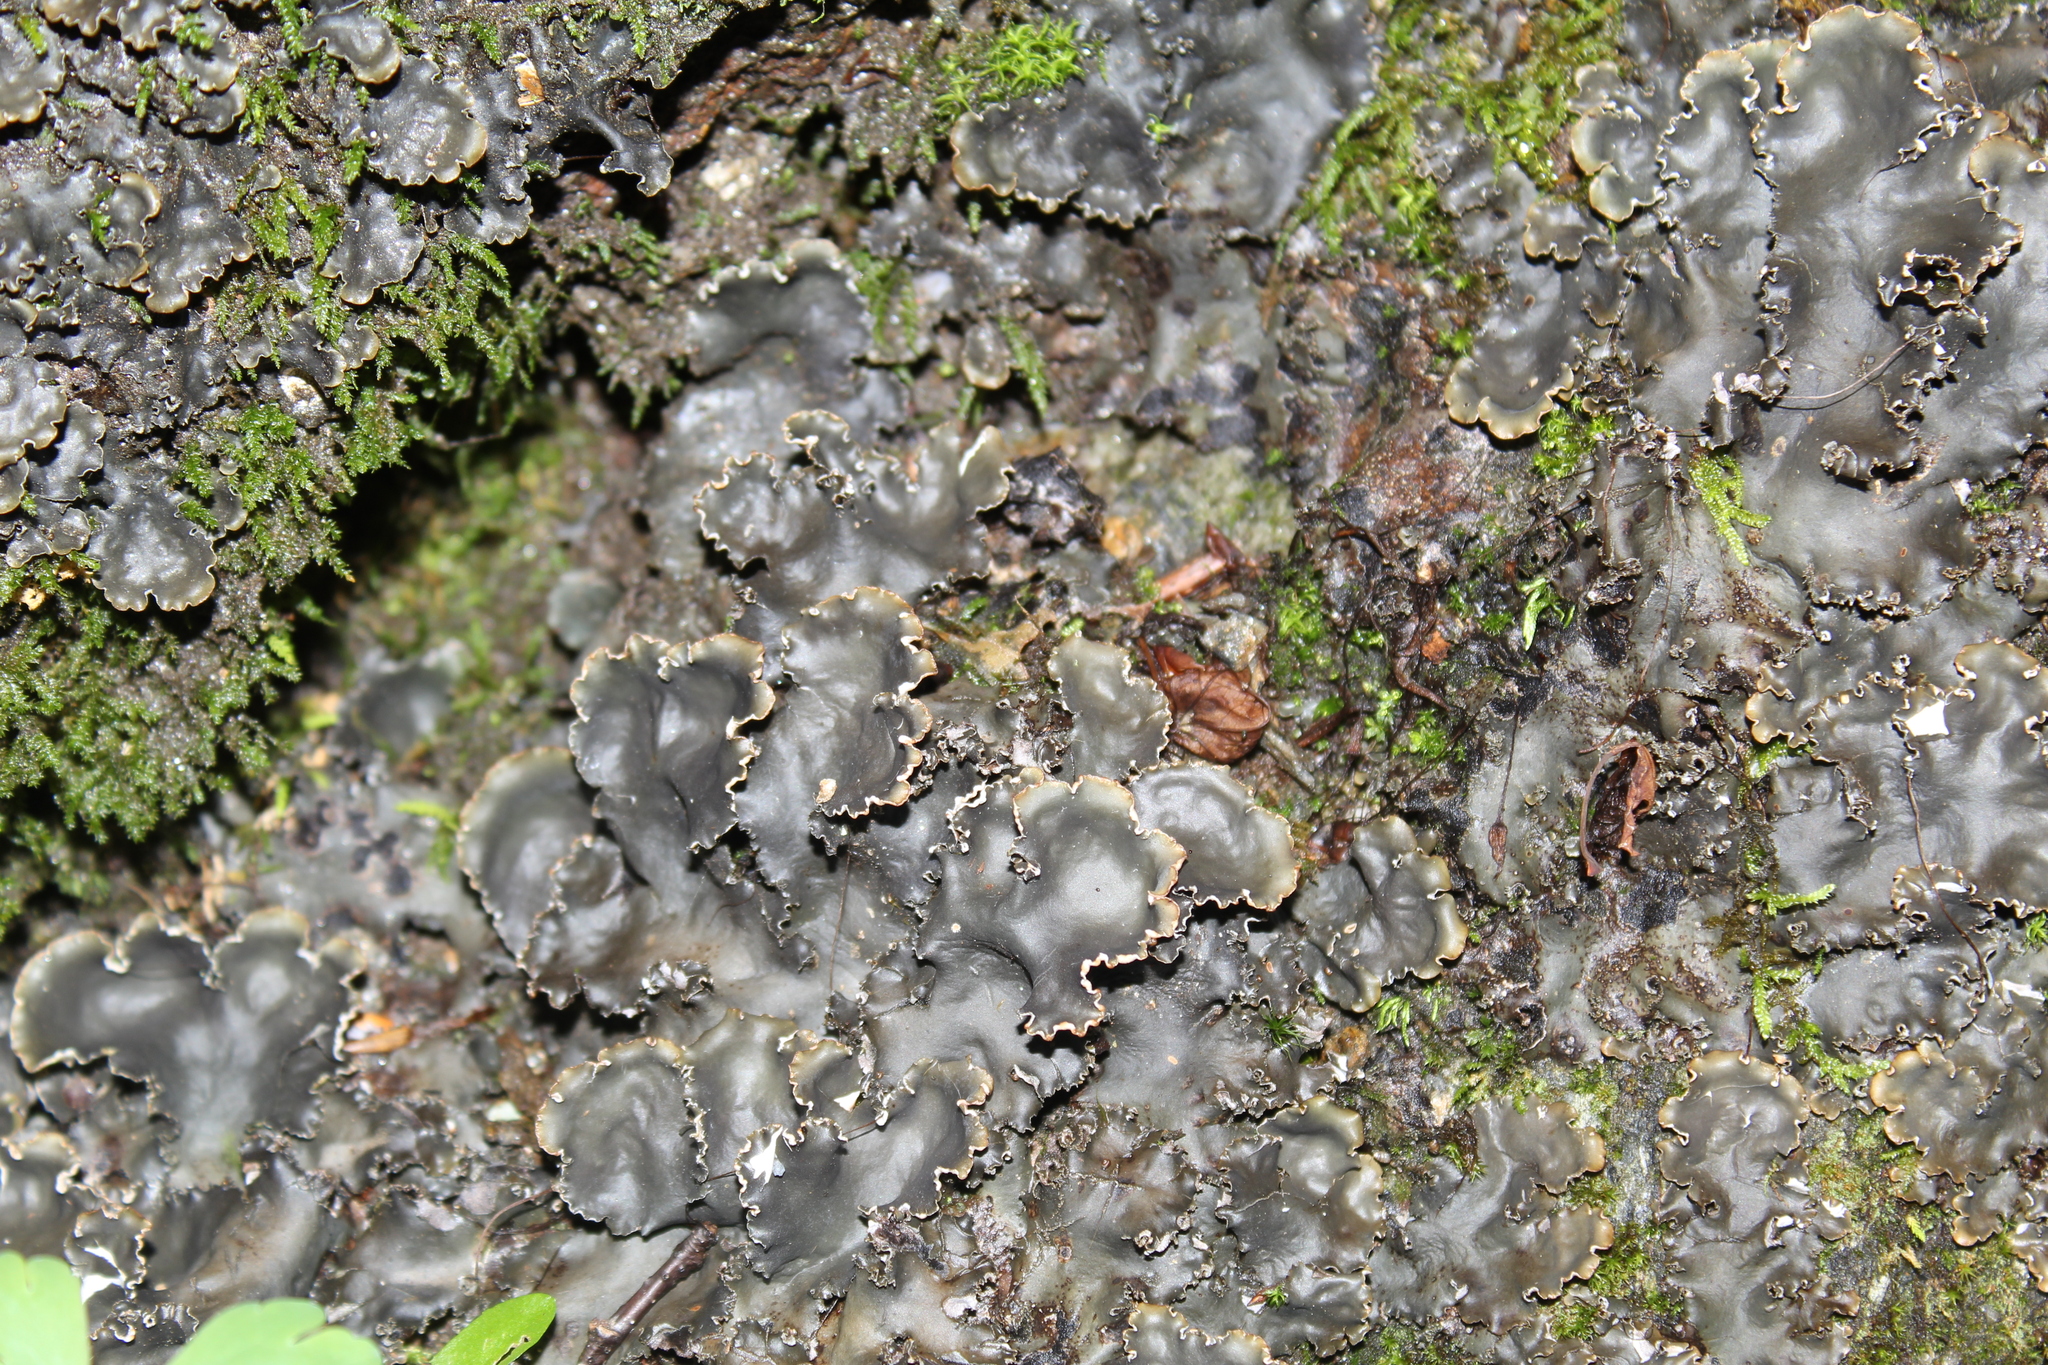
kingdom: Fungi
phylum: Ascomycota
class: Lecanoromycetes
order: Peltigerales
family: Peltigeraceae
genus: Peltigera
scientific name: Peltigera elisabethae
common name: Concentric pelt lichen
